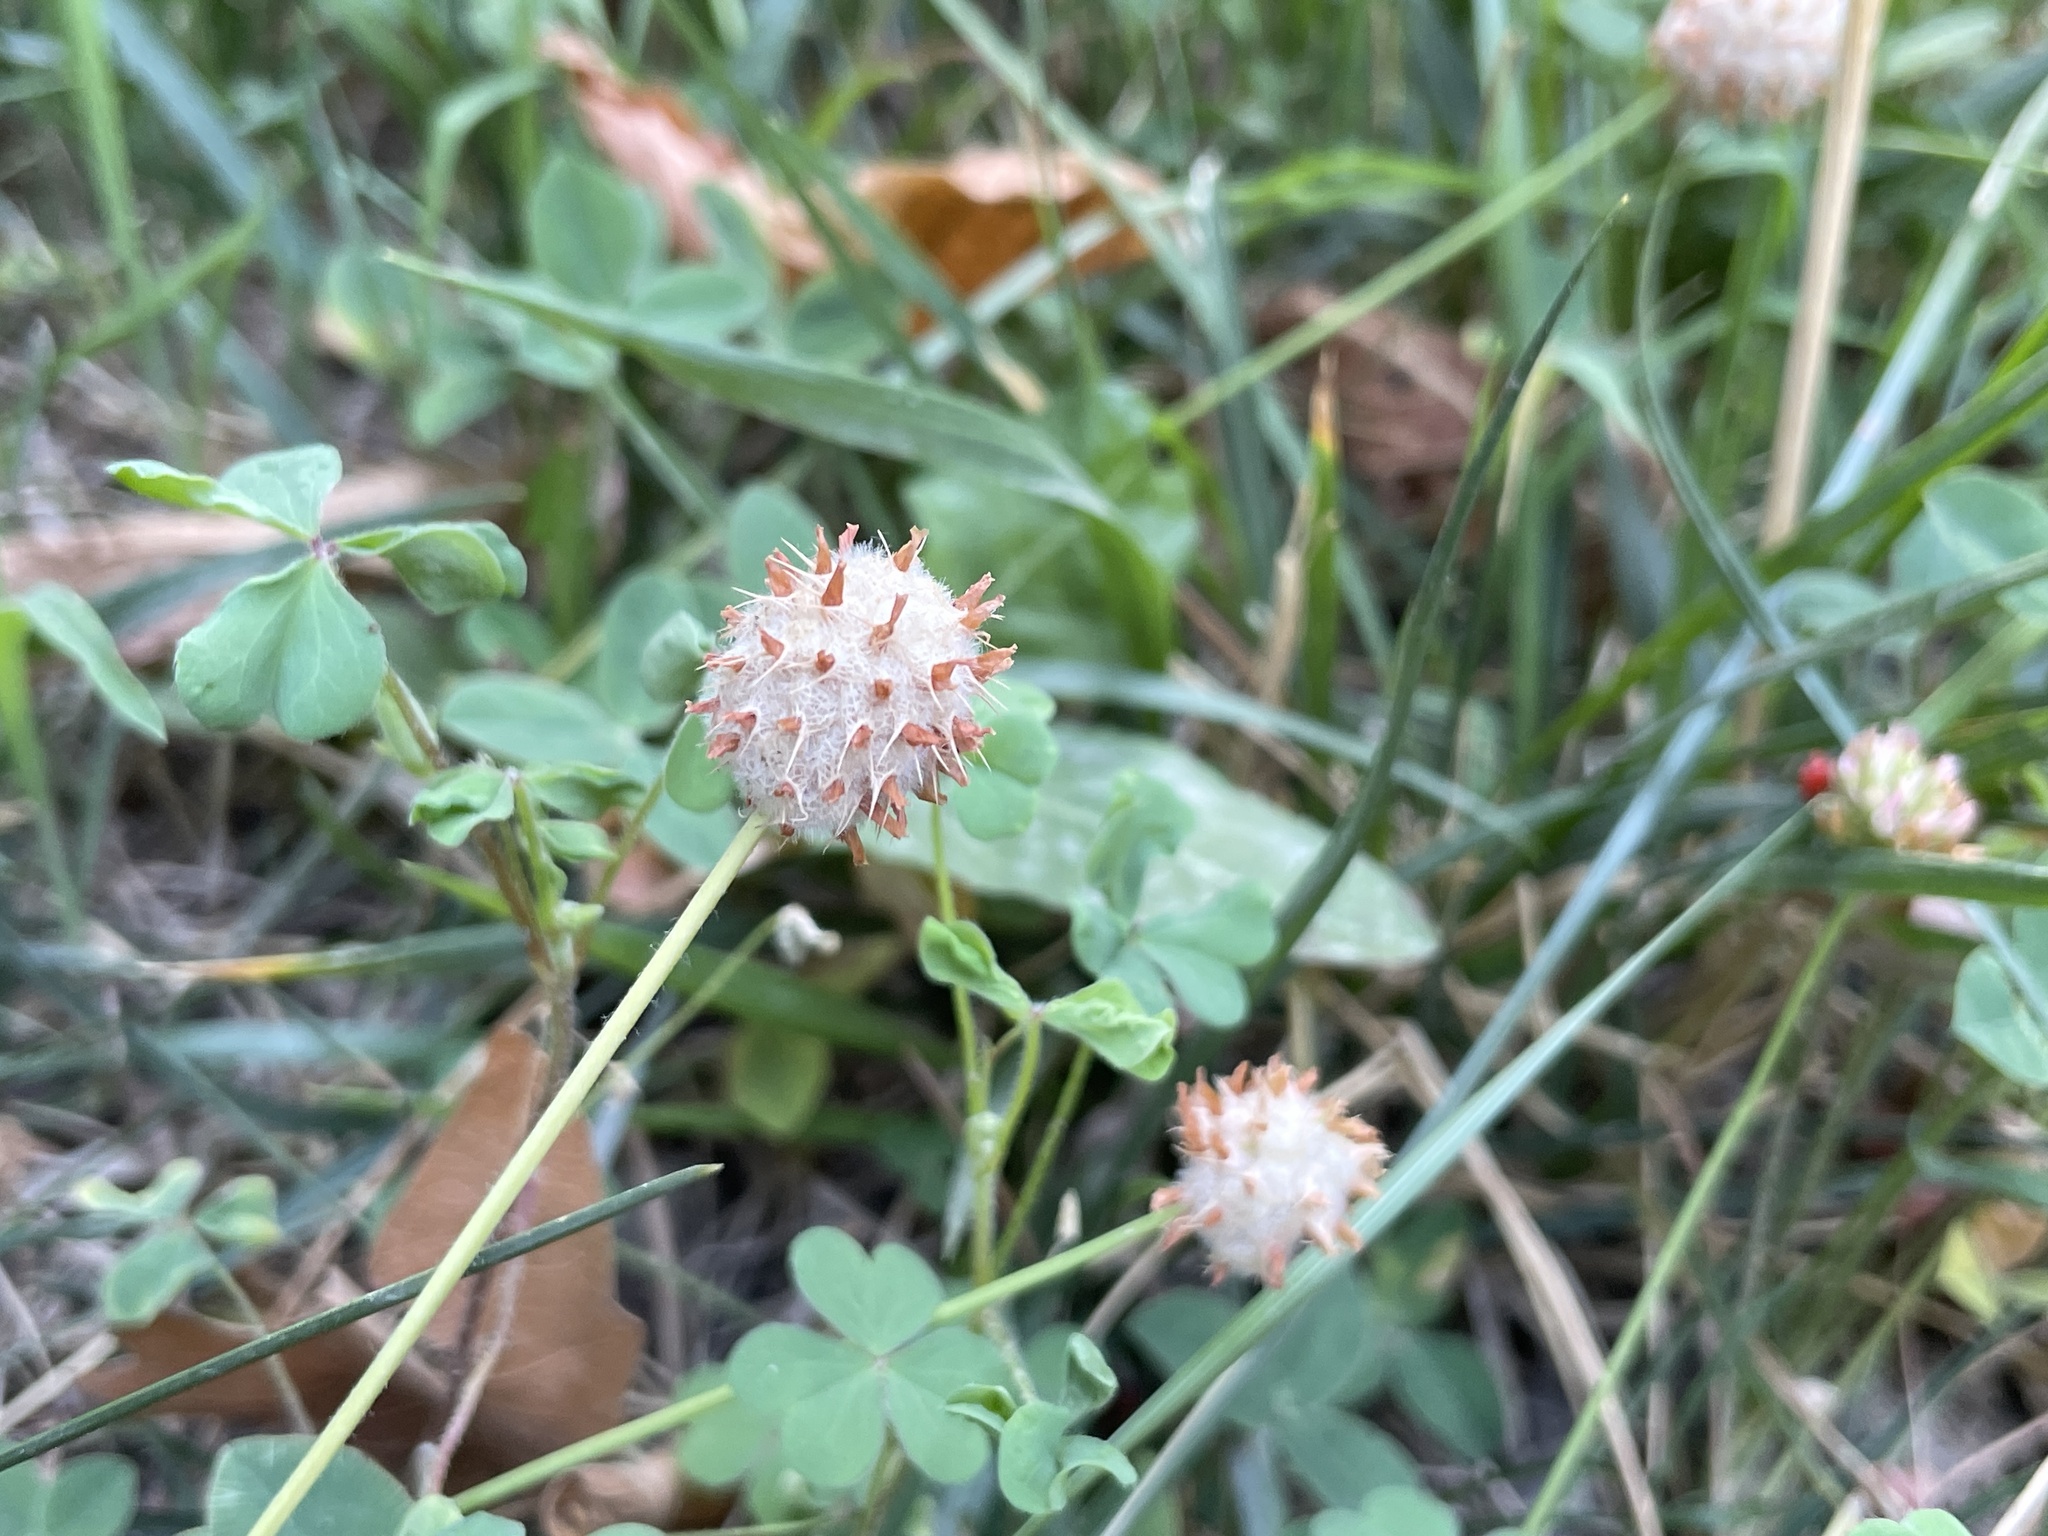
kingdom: Plantae
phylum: Tracheophyta
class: Magnoliopsida
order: Fabales
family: Fabaceae
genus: Trifolium
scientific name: Trifolium fragiferum
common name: Strawberry clover
